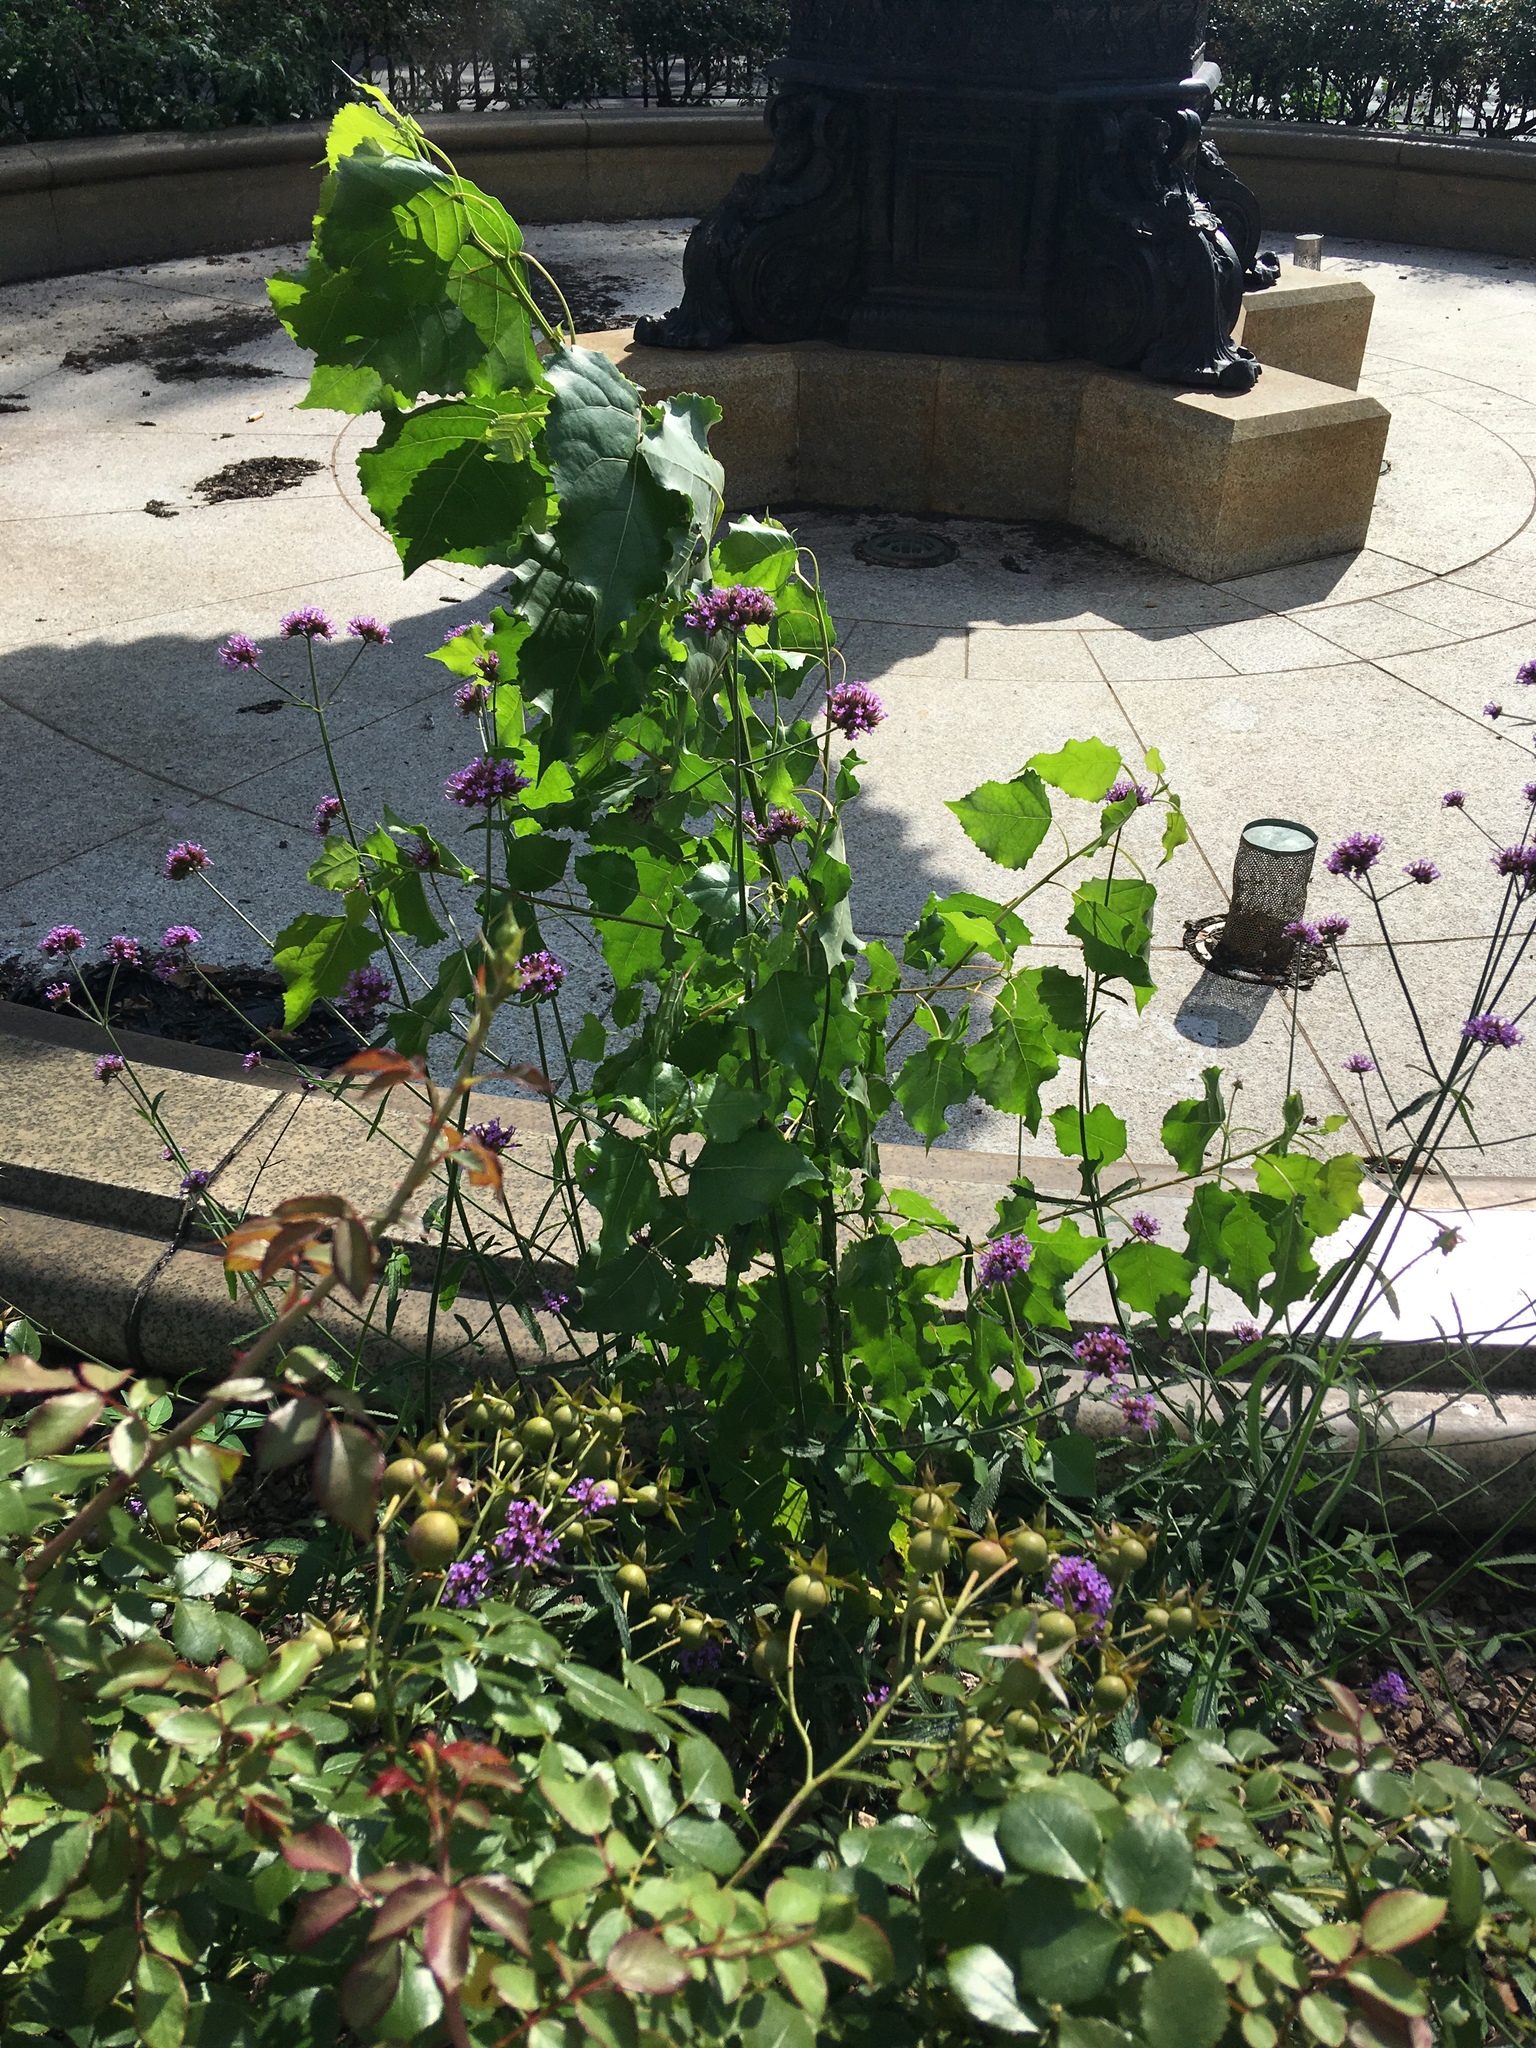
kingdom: Plantae
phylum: Tracheophyta
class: Magnoliopsida
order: Malpighiales
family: Salicaceae
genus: Populus
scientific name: Populus deltoides
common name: Eastern cottonwood
